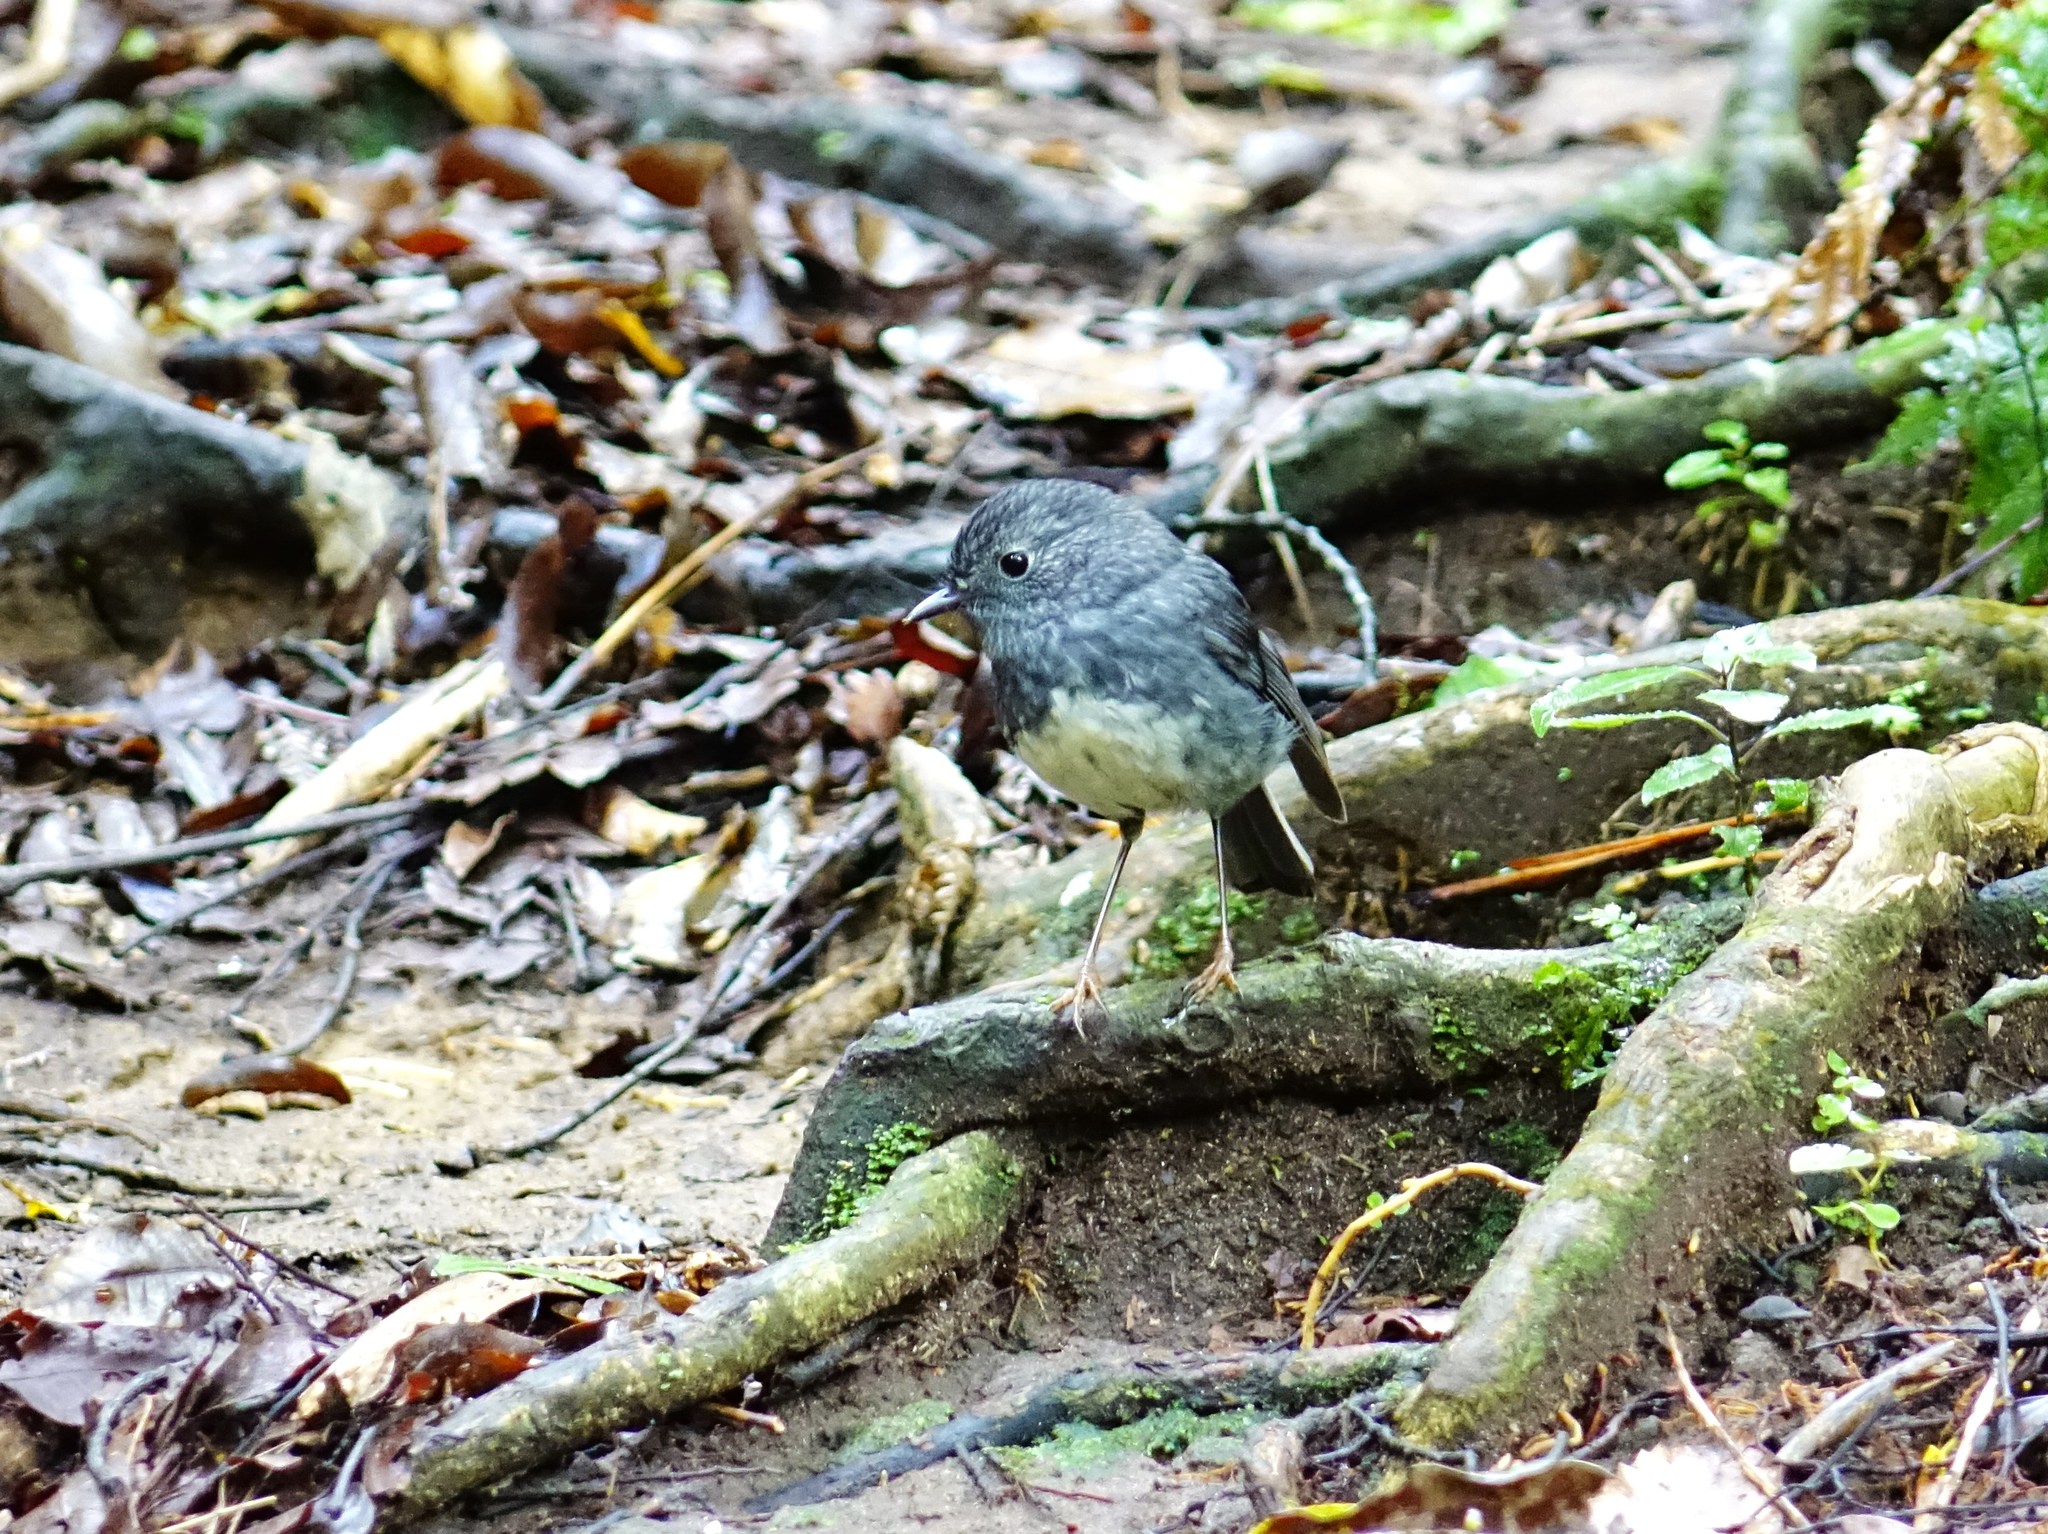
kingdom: Animalia
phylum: Chordata
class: Aves
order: Passeriformes
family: Petroicidae
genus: Petroica
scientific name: Petroica australis
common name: New zealand robin
